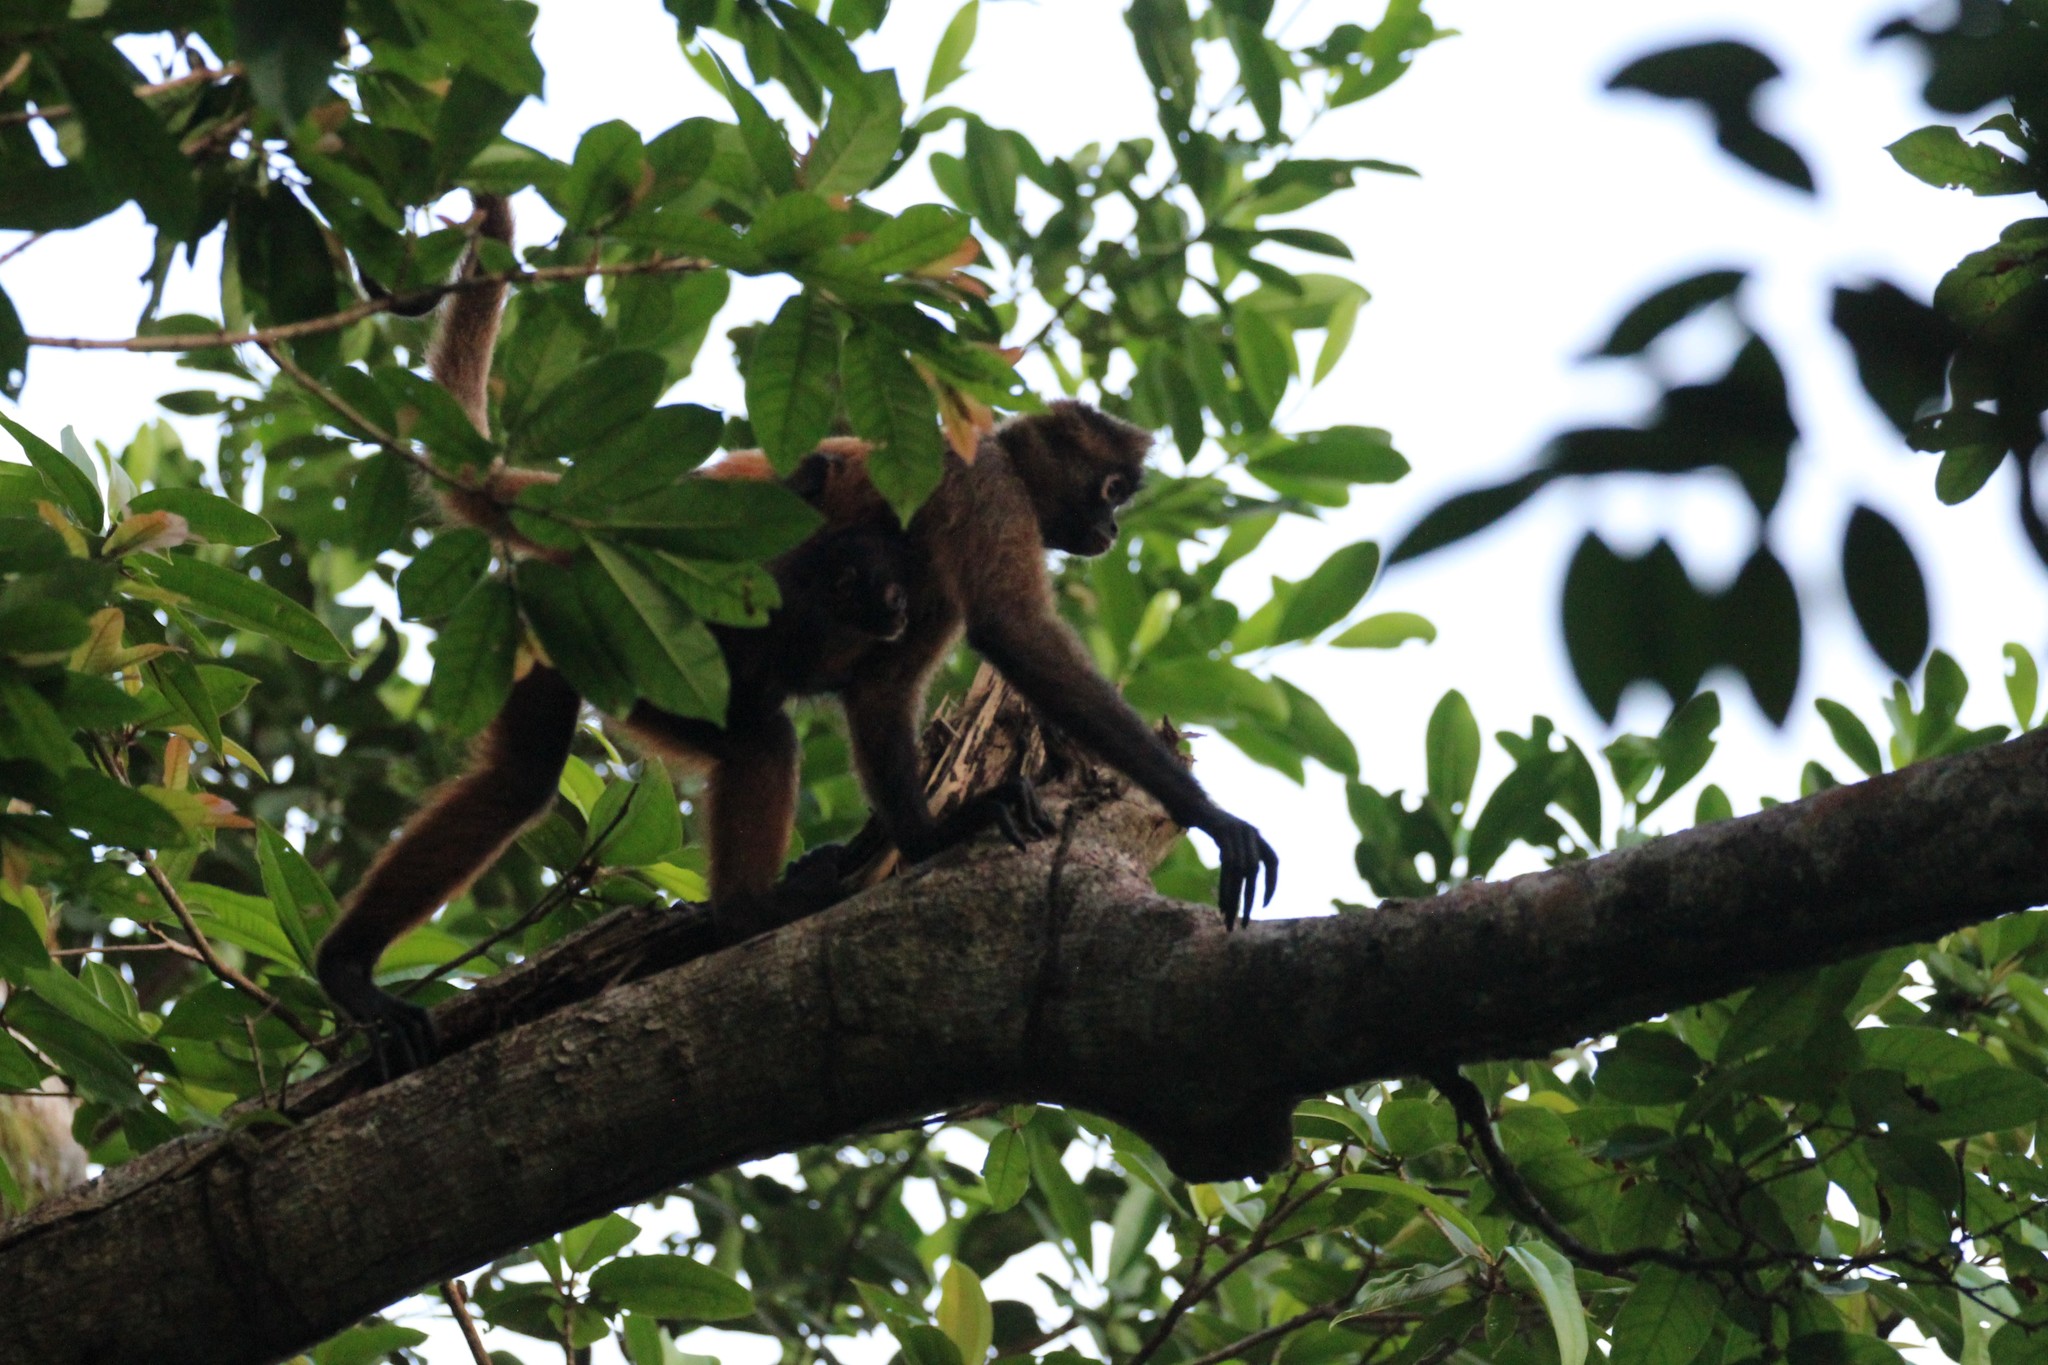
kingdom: Animalia
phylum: Chordata
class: Mammalia
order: Primates
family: Atelidae
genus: Ateles
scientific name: Ateles geoffroyi
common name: Black-handed spider monkey
